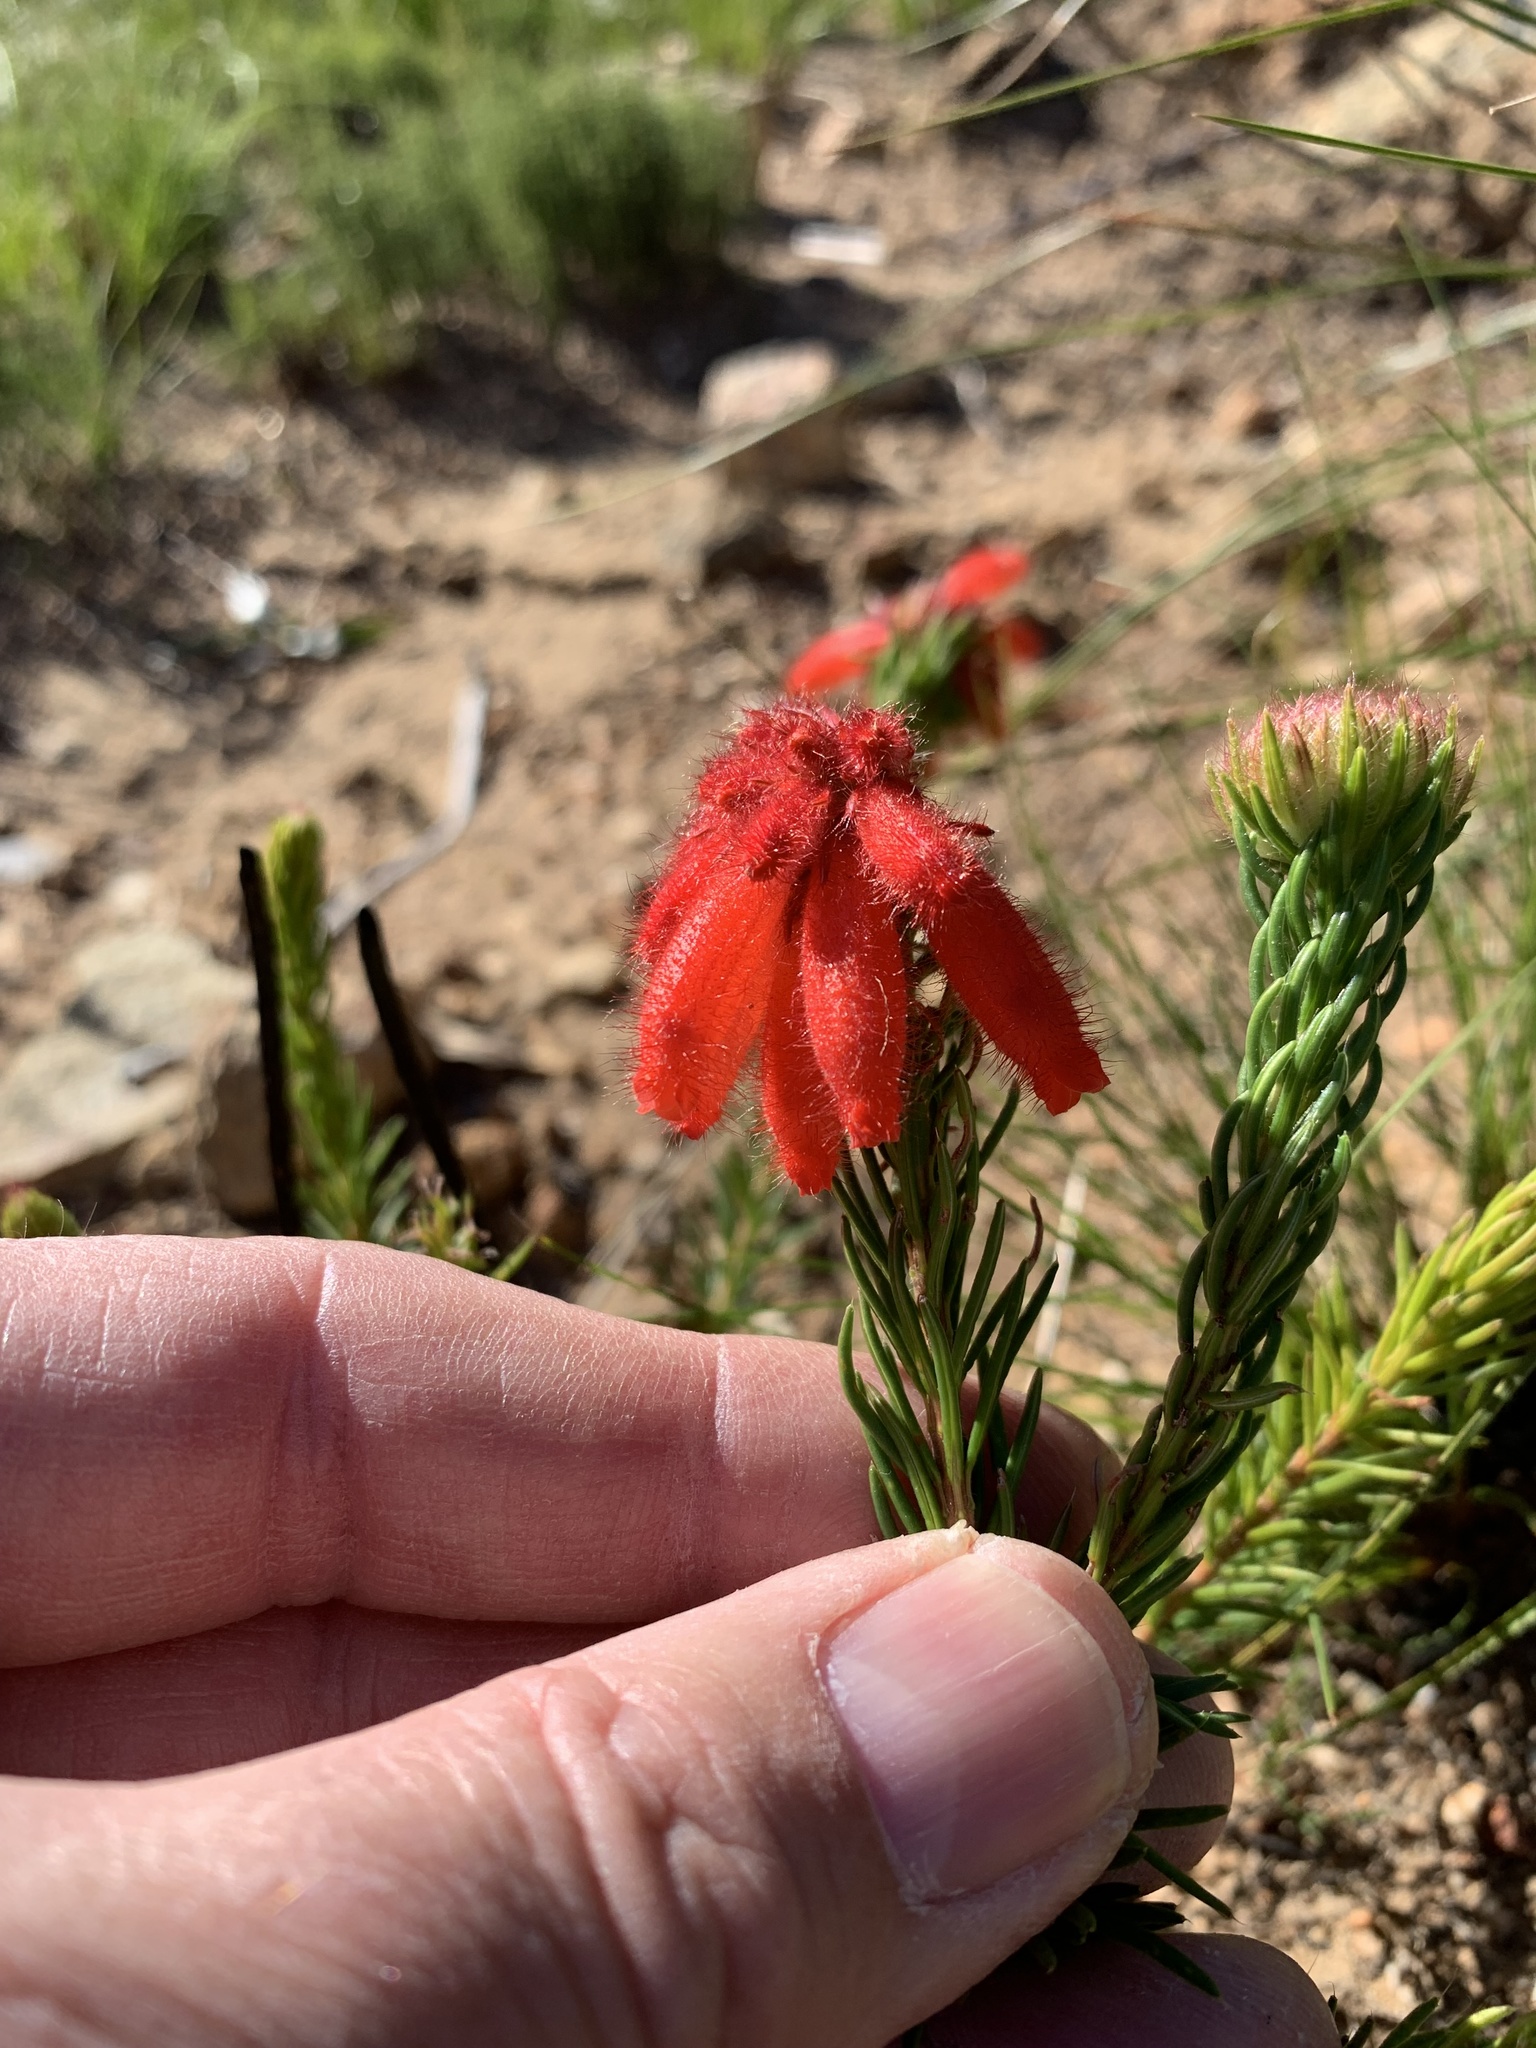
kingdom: Plantae
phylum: Tracheophyta
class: Magnoliopsida
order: Ericales
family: Ericaceae
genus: Erica
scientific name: Erica cerinthoides
